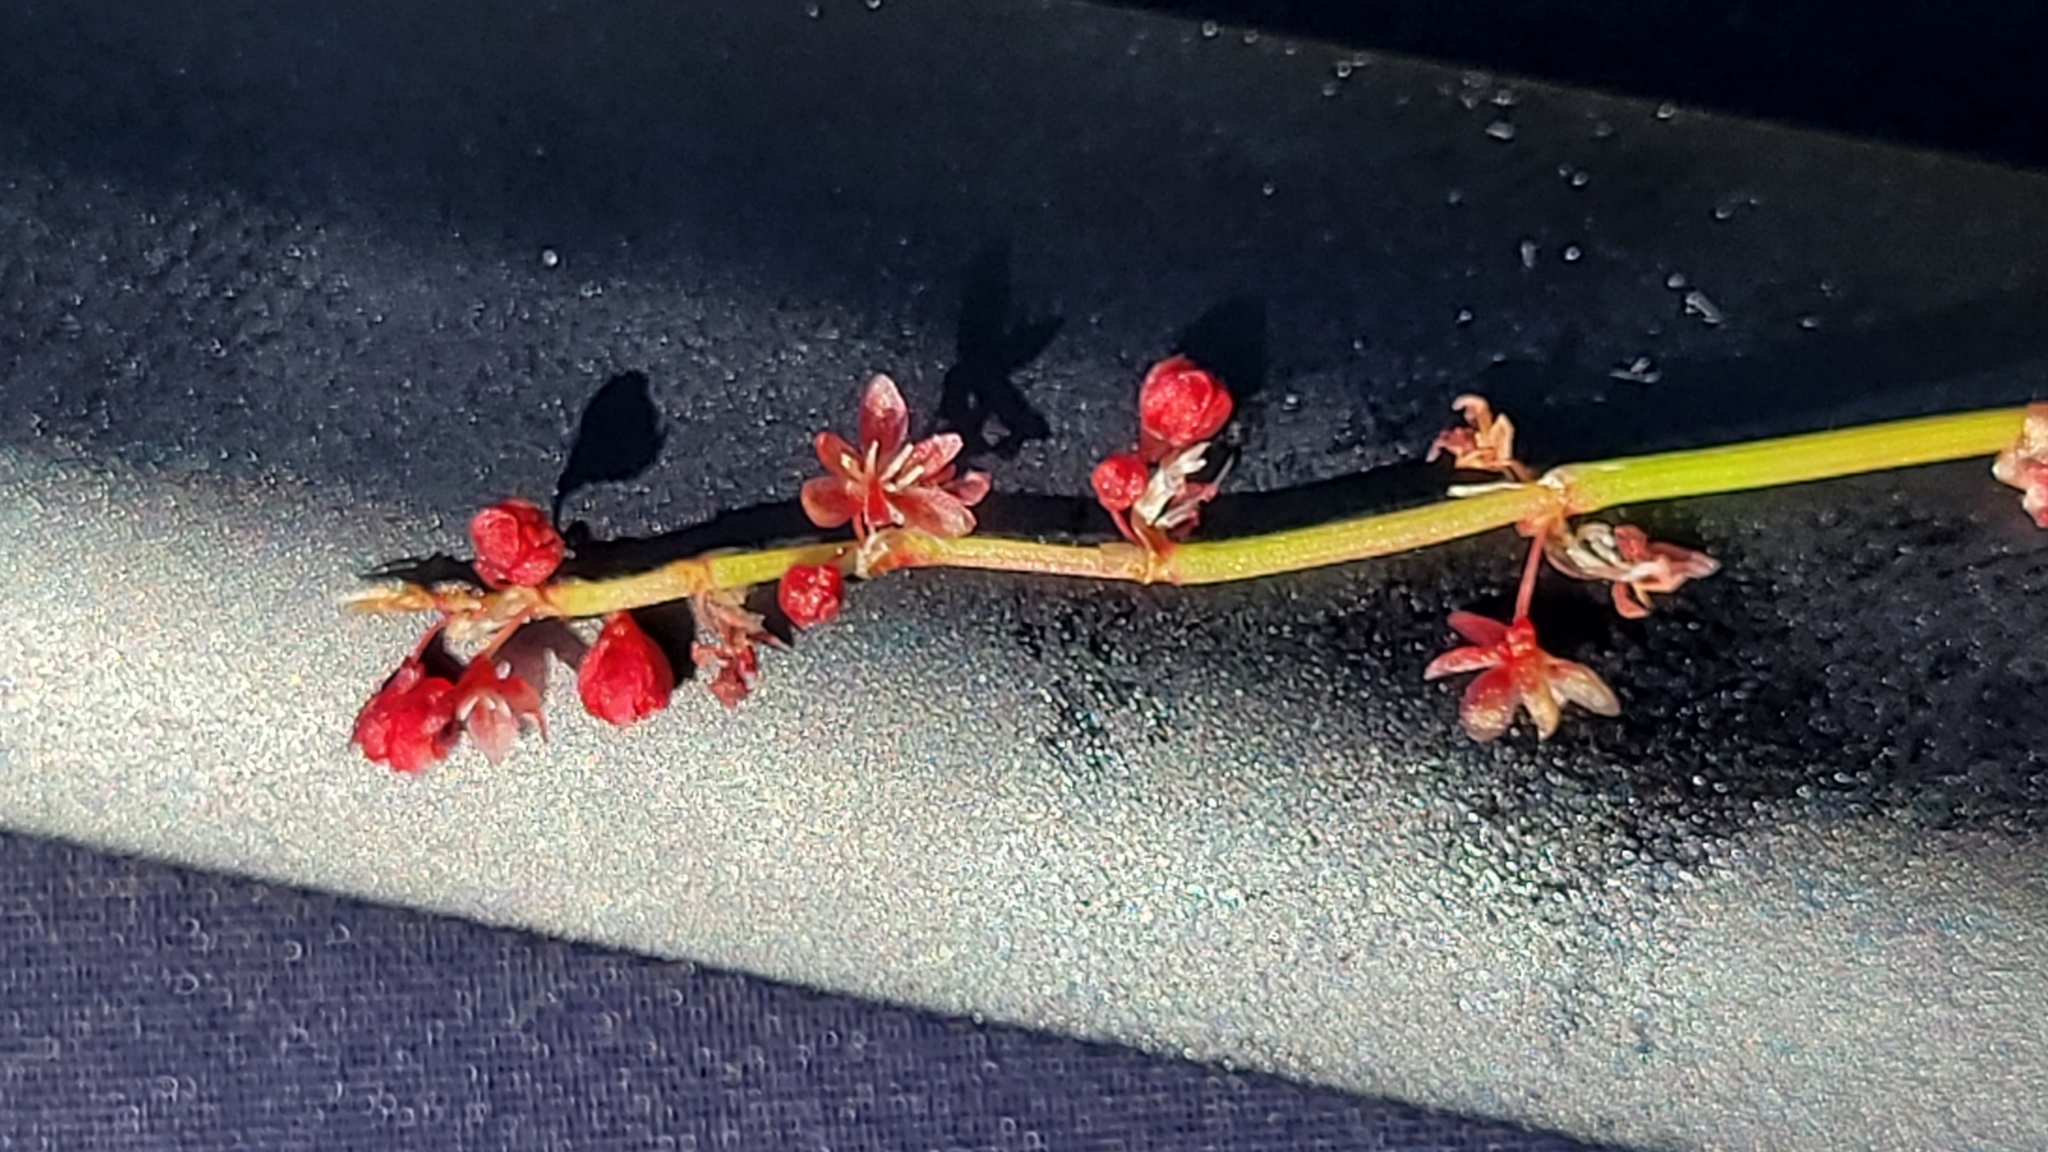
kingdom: Plantae
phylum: Tracheophyta
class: Magnoliopsida
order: Caryophyllales
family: Polygonaceae
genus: Rumex
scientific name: Rumex acetosella
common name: Common sheep sorrel
